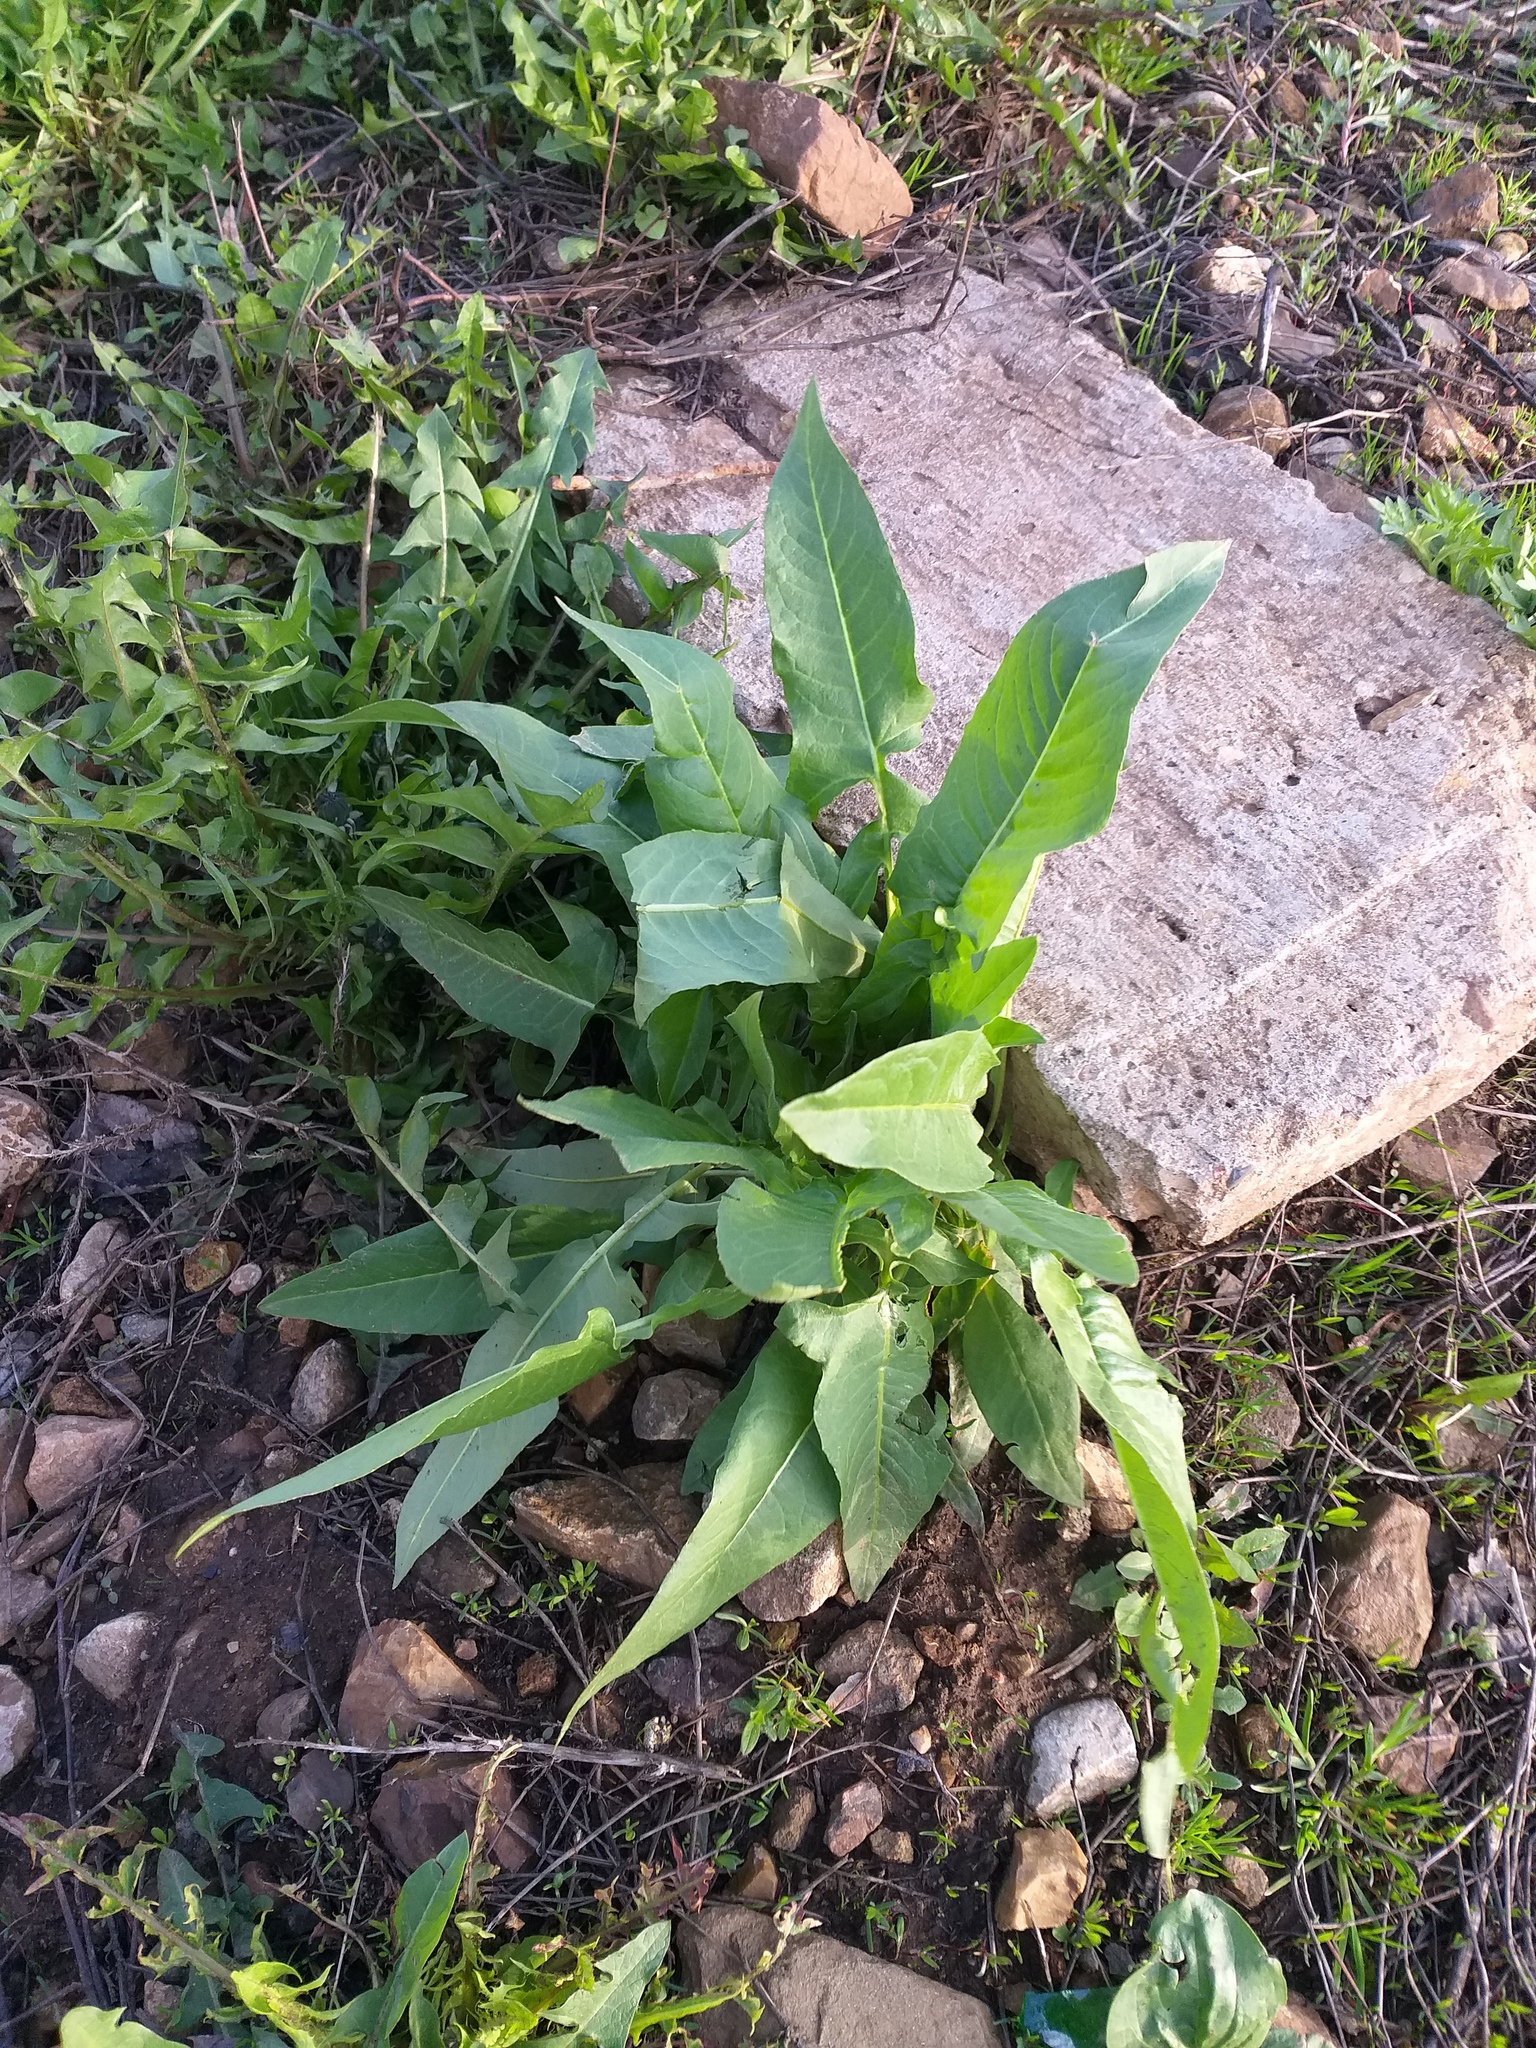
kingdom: Plantae
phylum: Tracheophyta
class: Magnoliopsida
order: Brassicales
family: Brassicaceae
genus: Bunias
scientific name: Bunias orientalis
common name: Warty-cabbage
